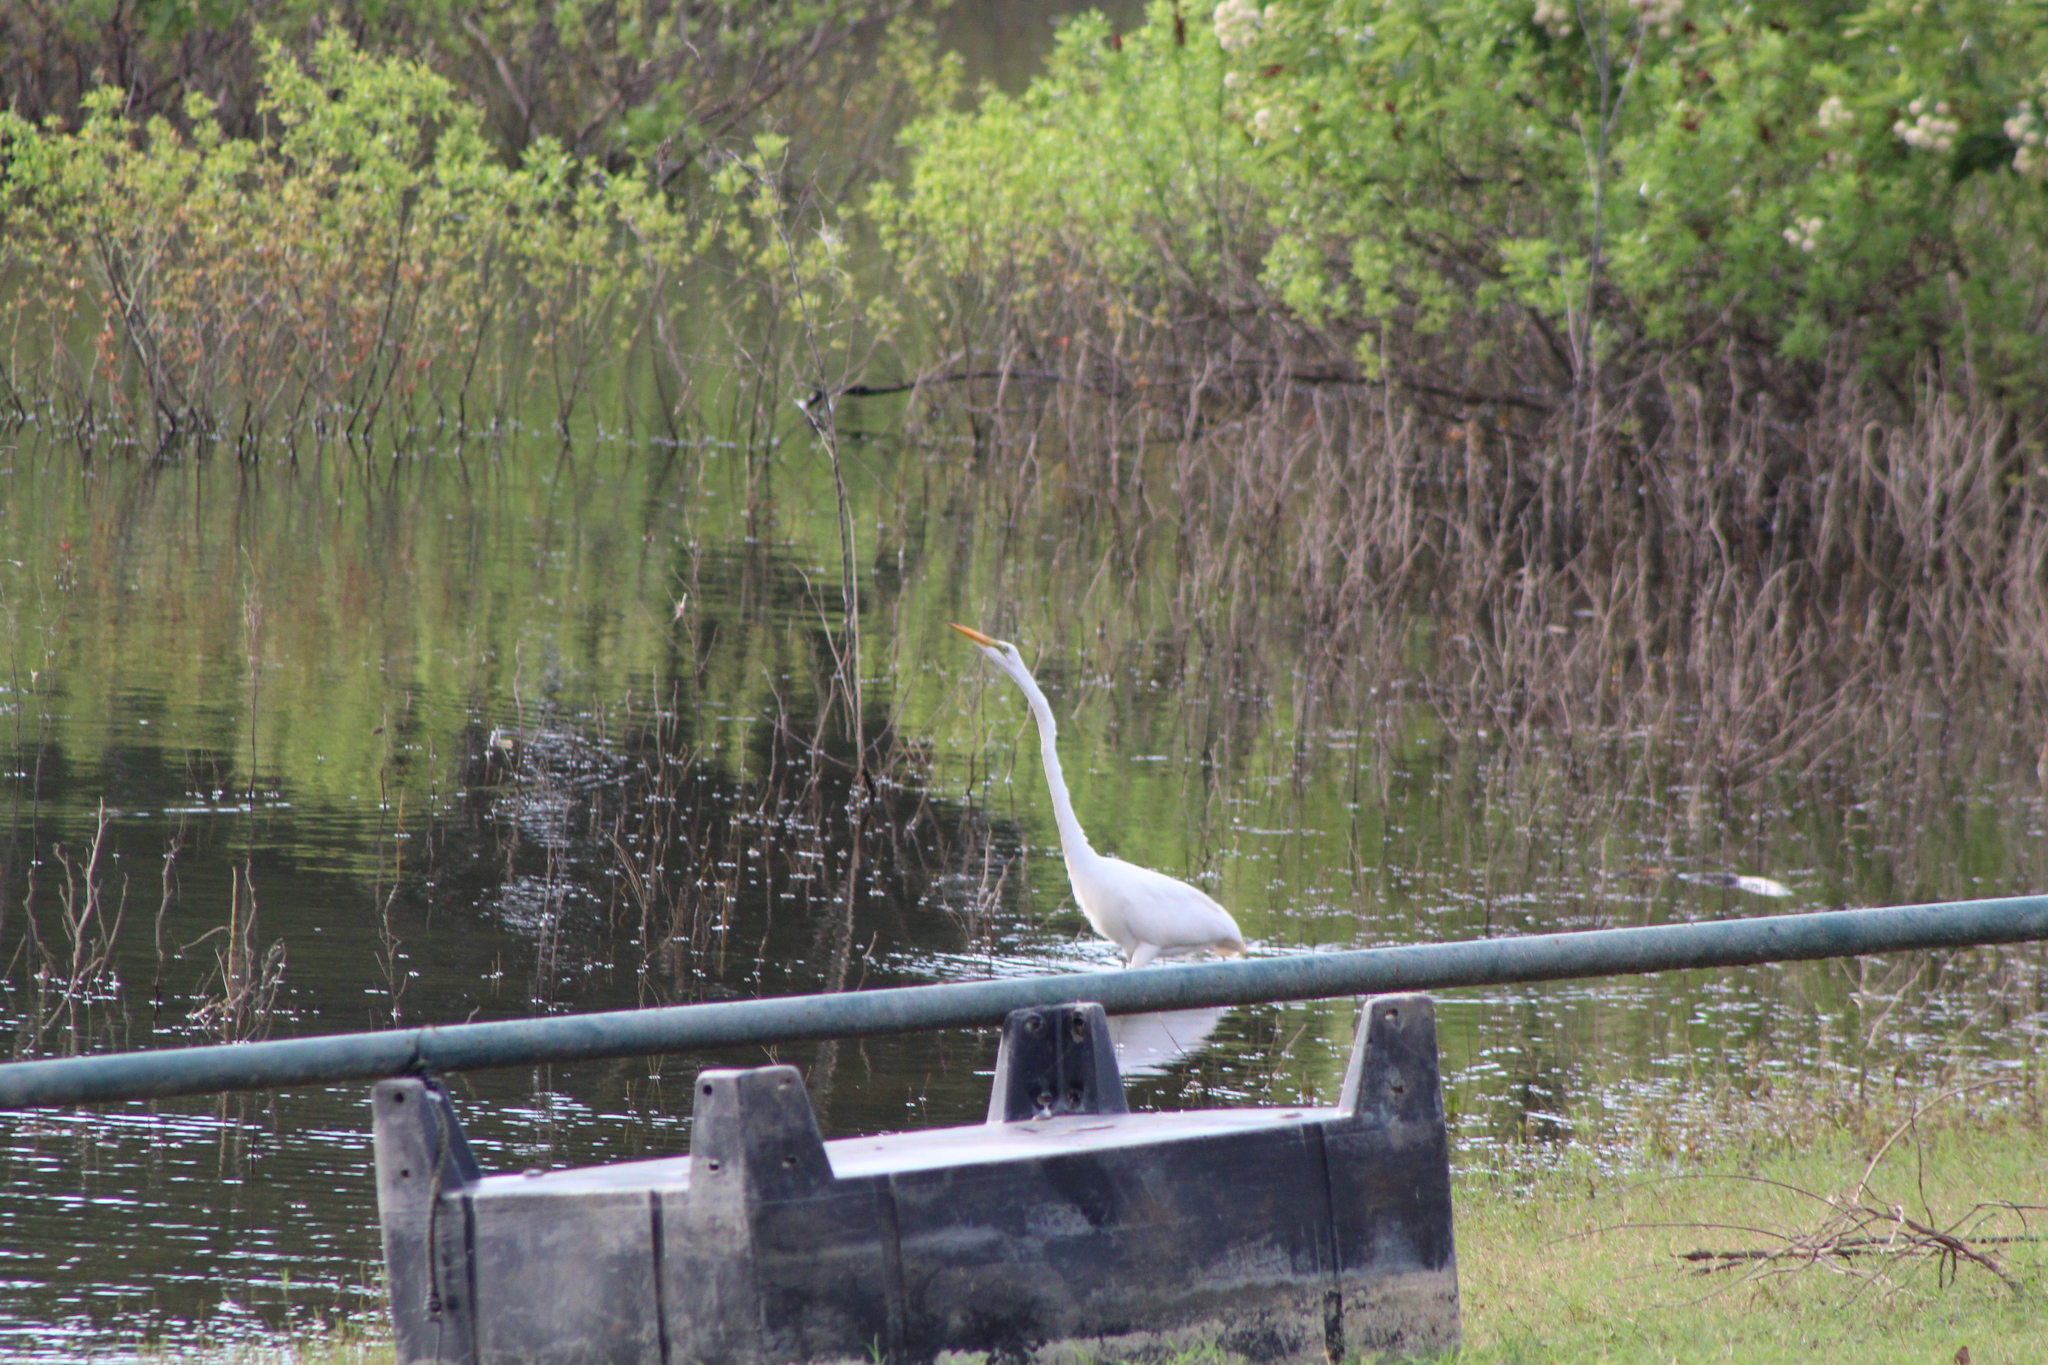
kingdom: Animalia
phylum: Chordata
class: Aves
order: Pelecaniformes
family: Ardeidae
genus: Ardea
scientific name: Ardea alba
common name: Great egret
